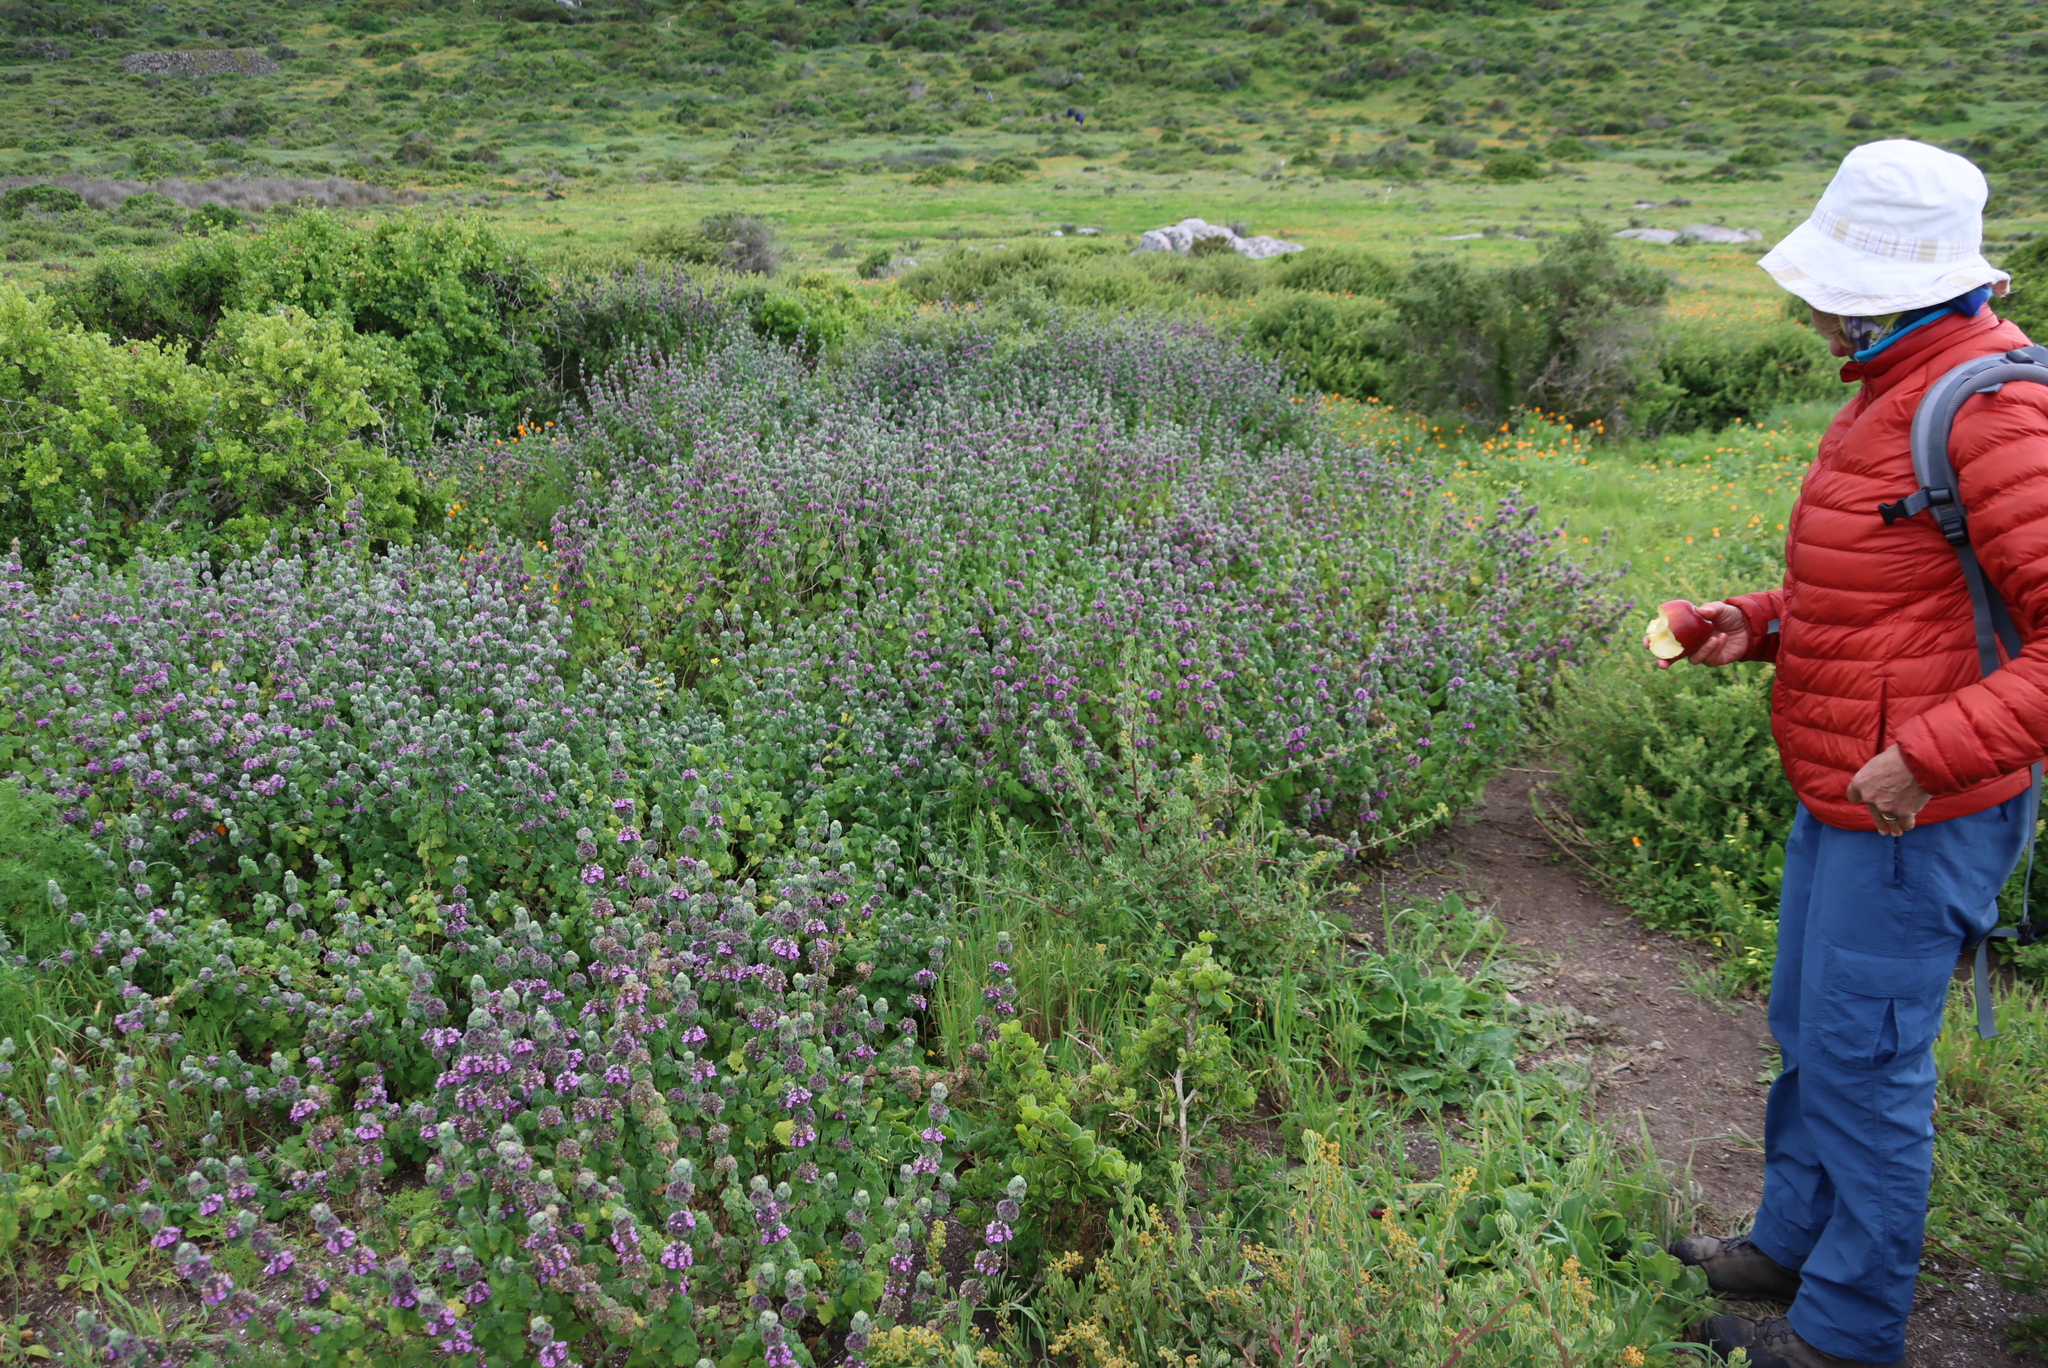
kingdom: Plantae
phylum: Tracheophyta
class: Magnoliopsida
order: Lamiales
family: Lamiaceae
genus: Pseudodictamnus
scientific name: Pseudodictamnus africanus
